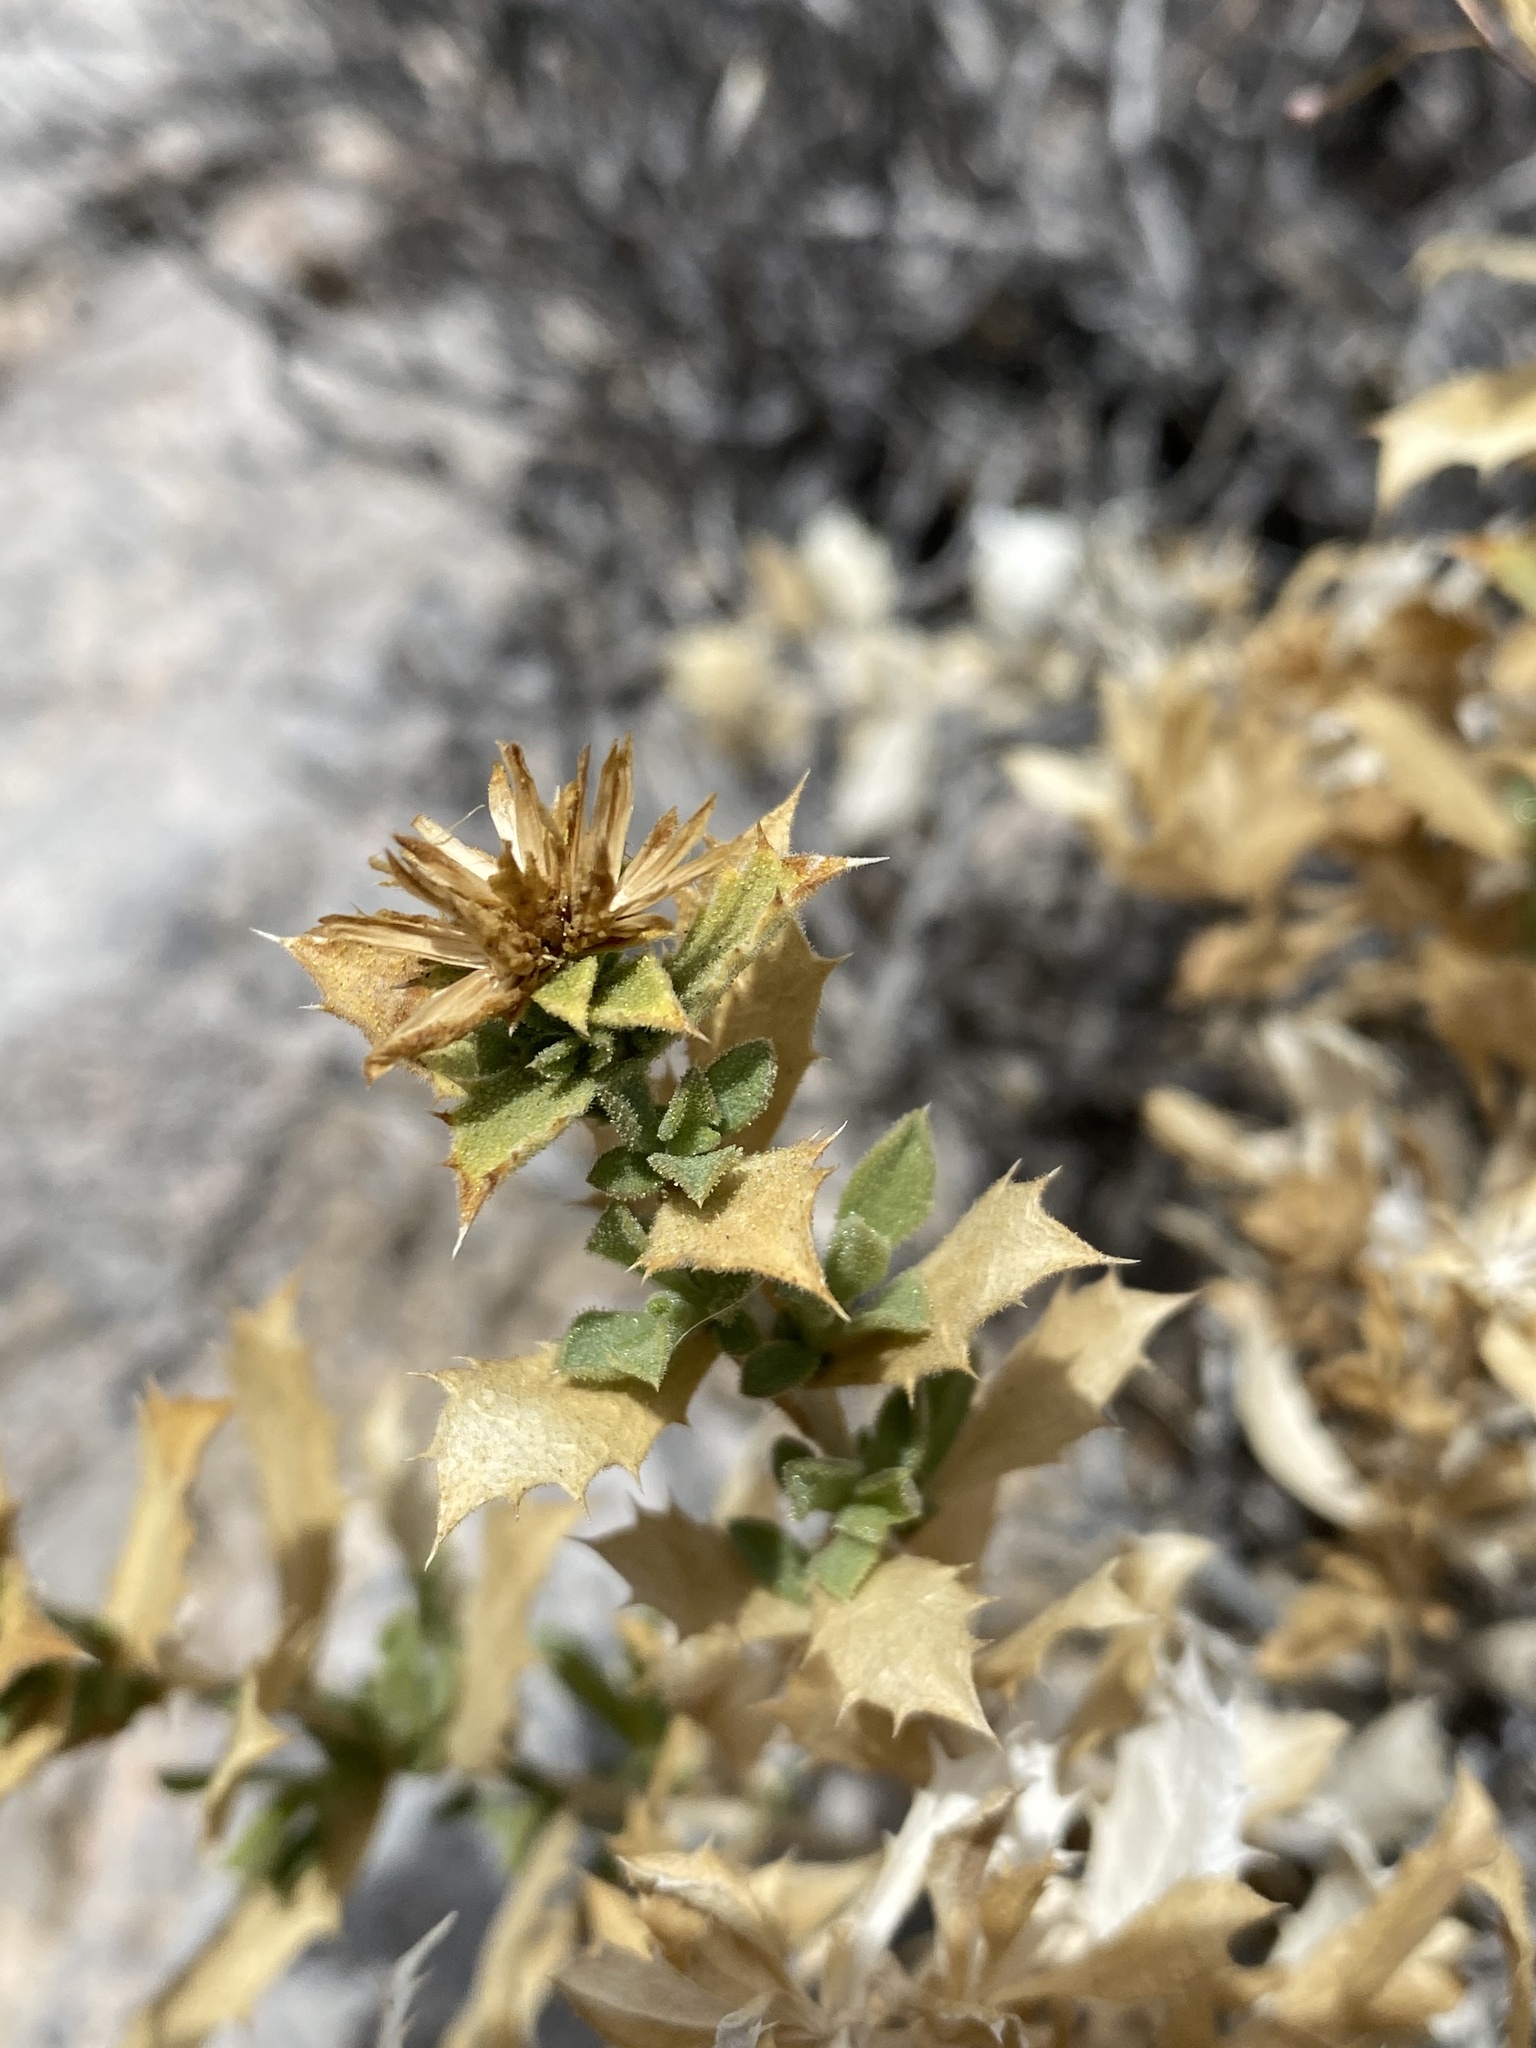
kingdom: Plantae
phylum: Tracheophyta
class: Magnoliopsida
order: Asterales
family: Asteraceae
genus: Adiaphila
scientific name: Adiaphila brickellioides
